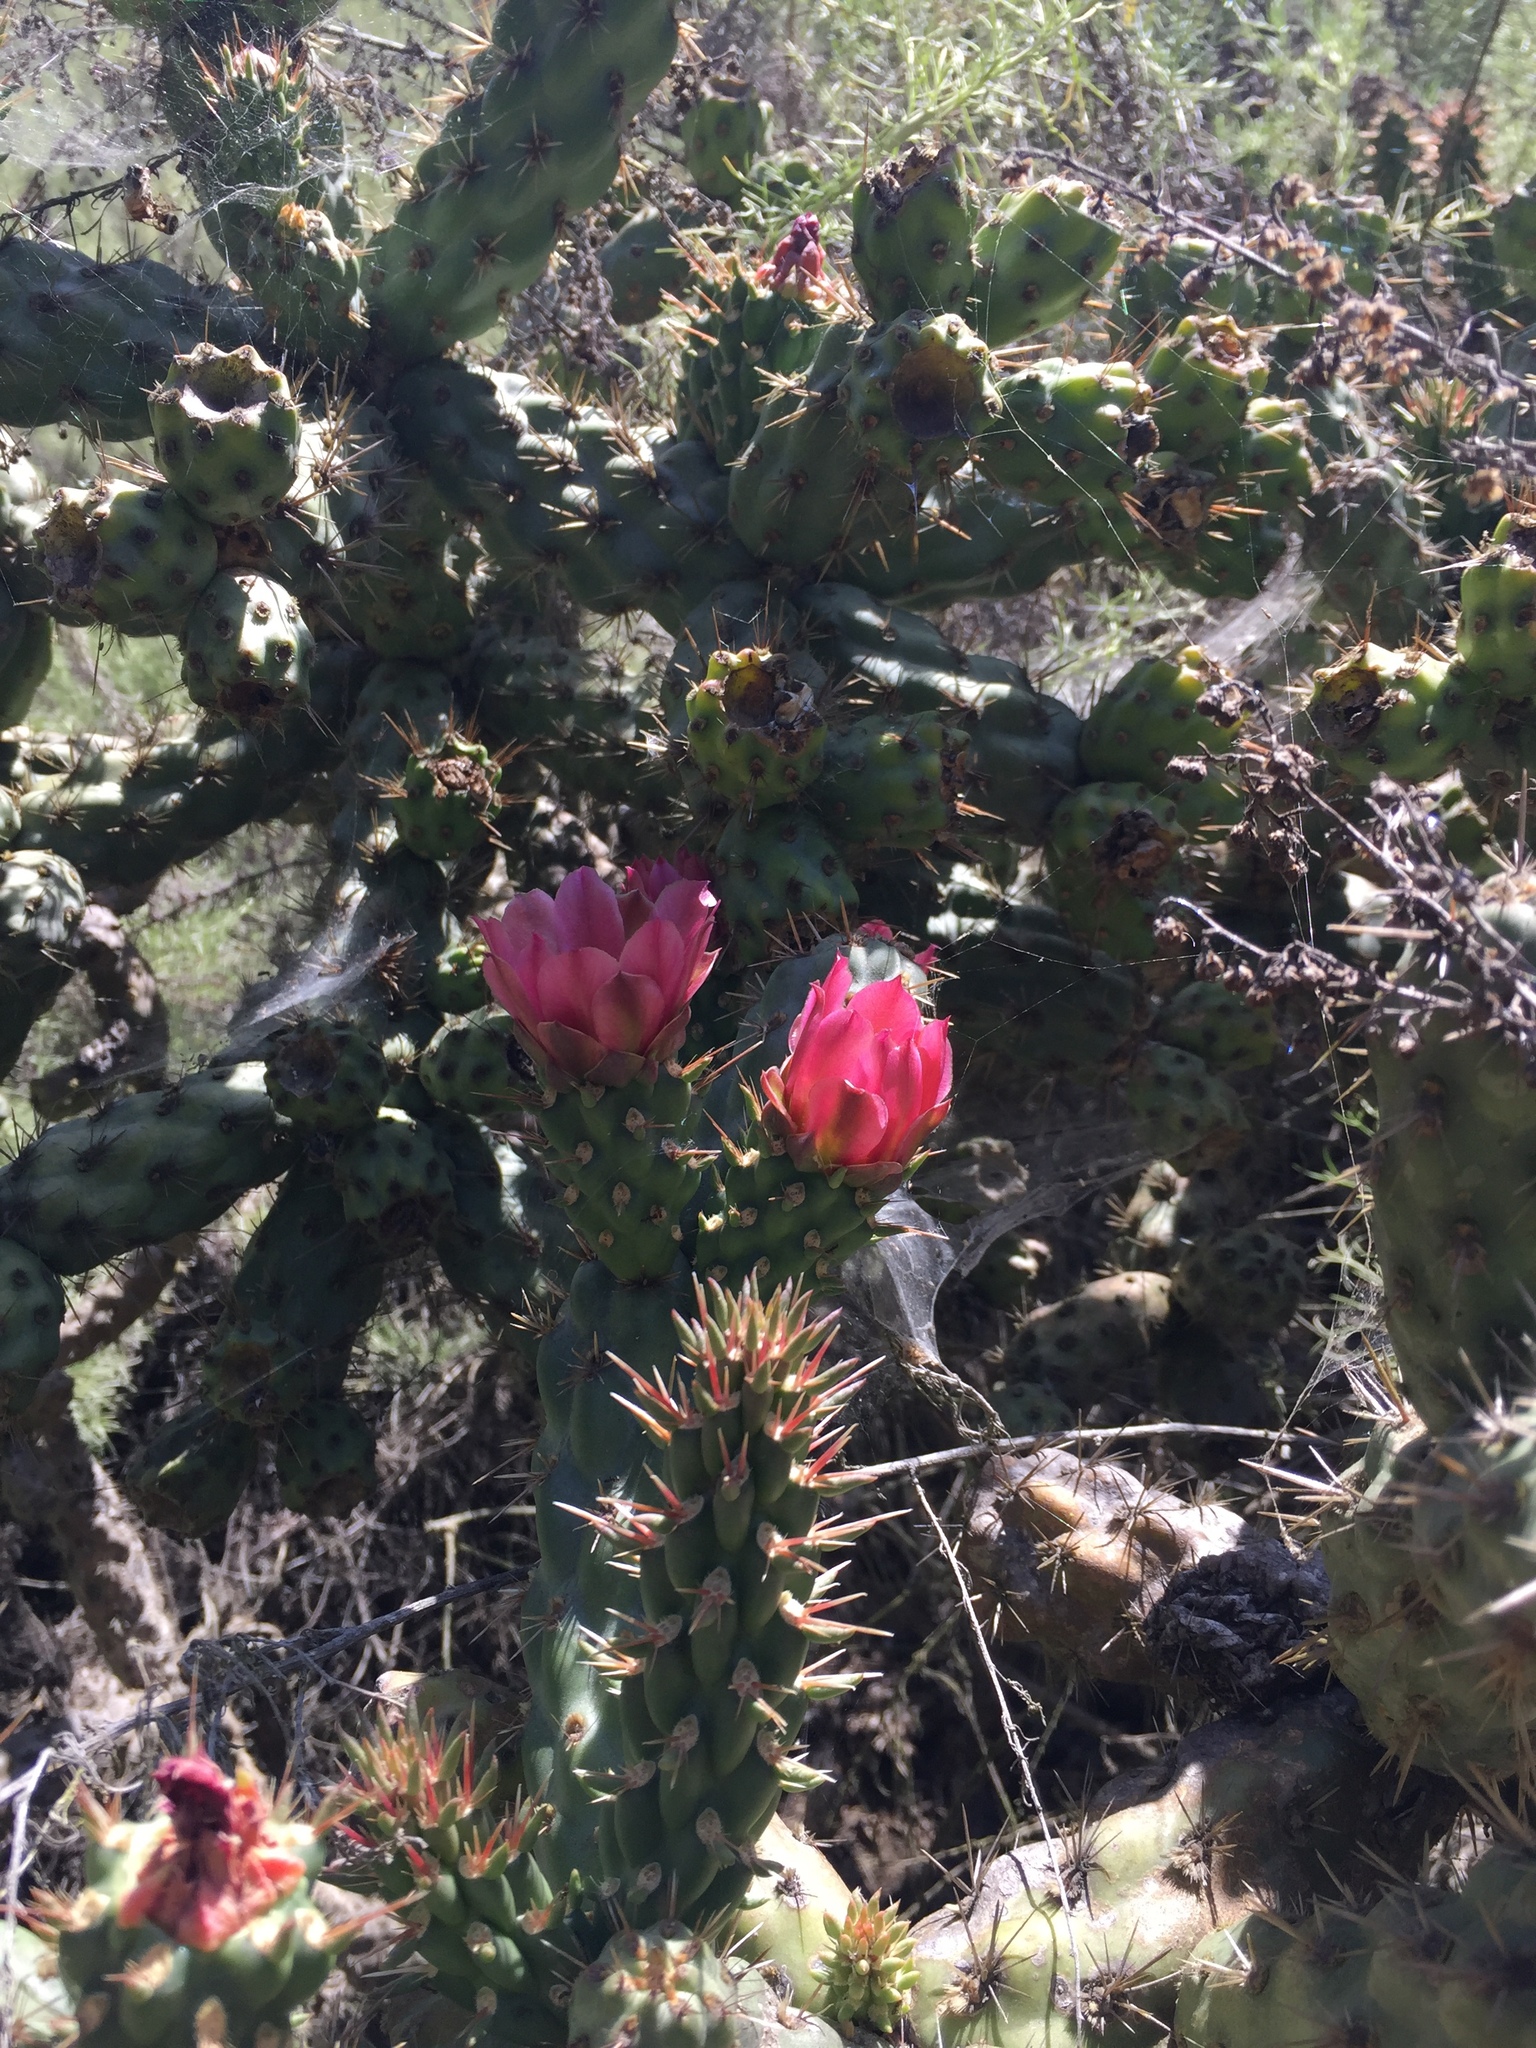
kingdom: Plantae
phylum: Tracheophyta
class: Magnoliopsida
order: Caryophyllales
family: Cactaceae
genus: Cylindropuntia
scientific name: Cylindropuntia prolifera
